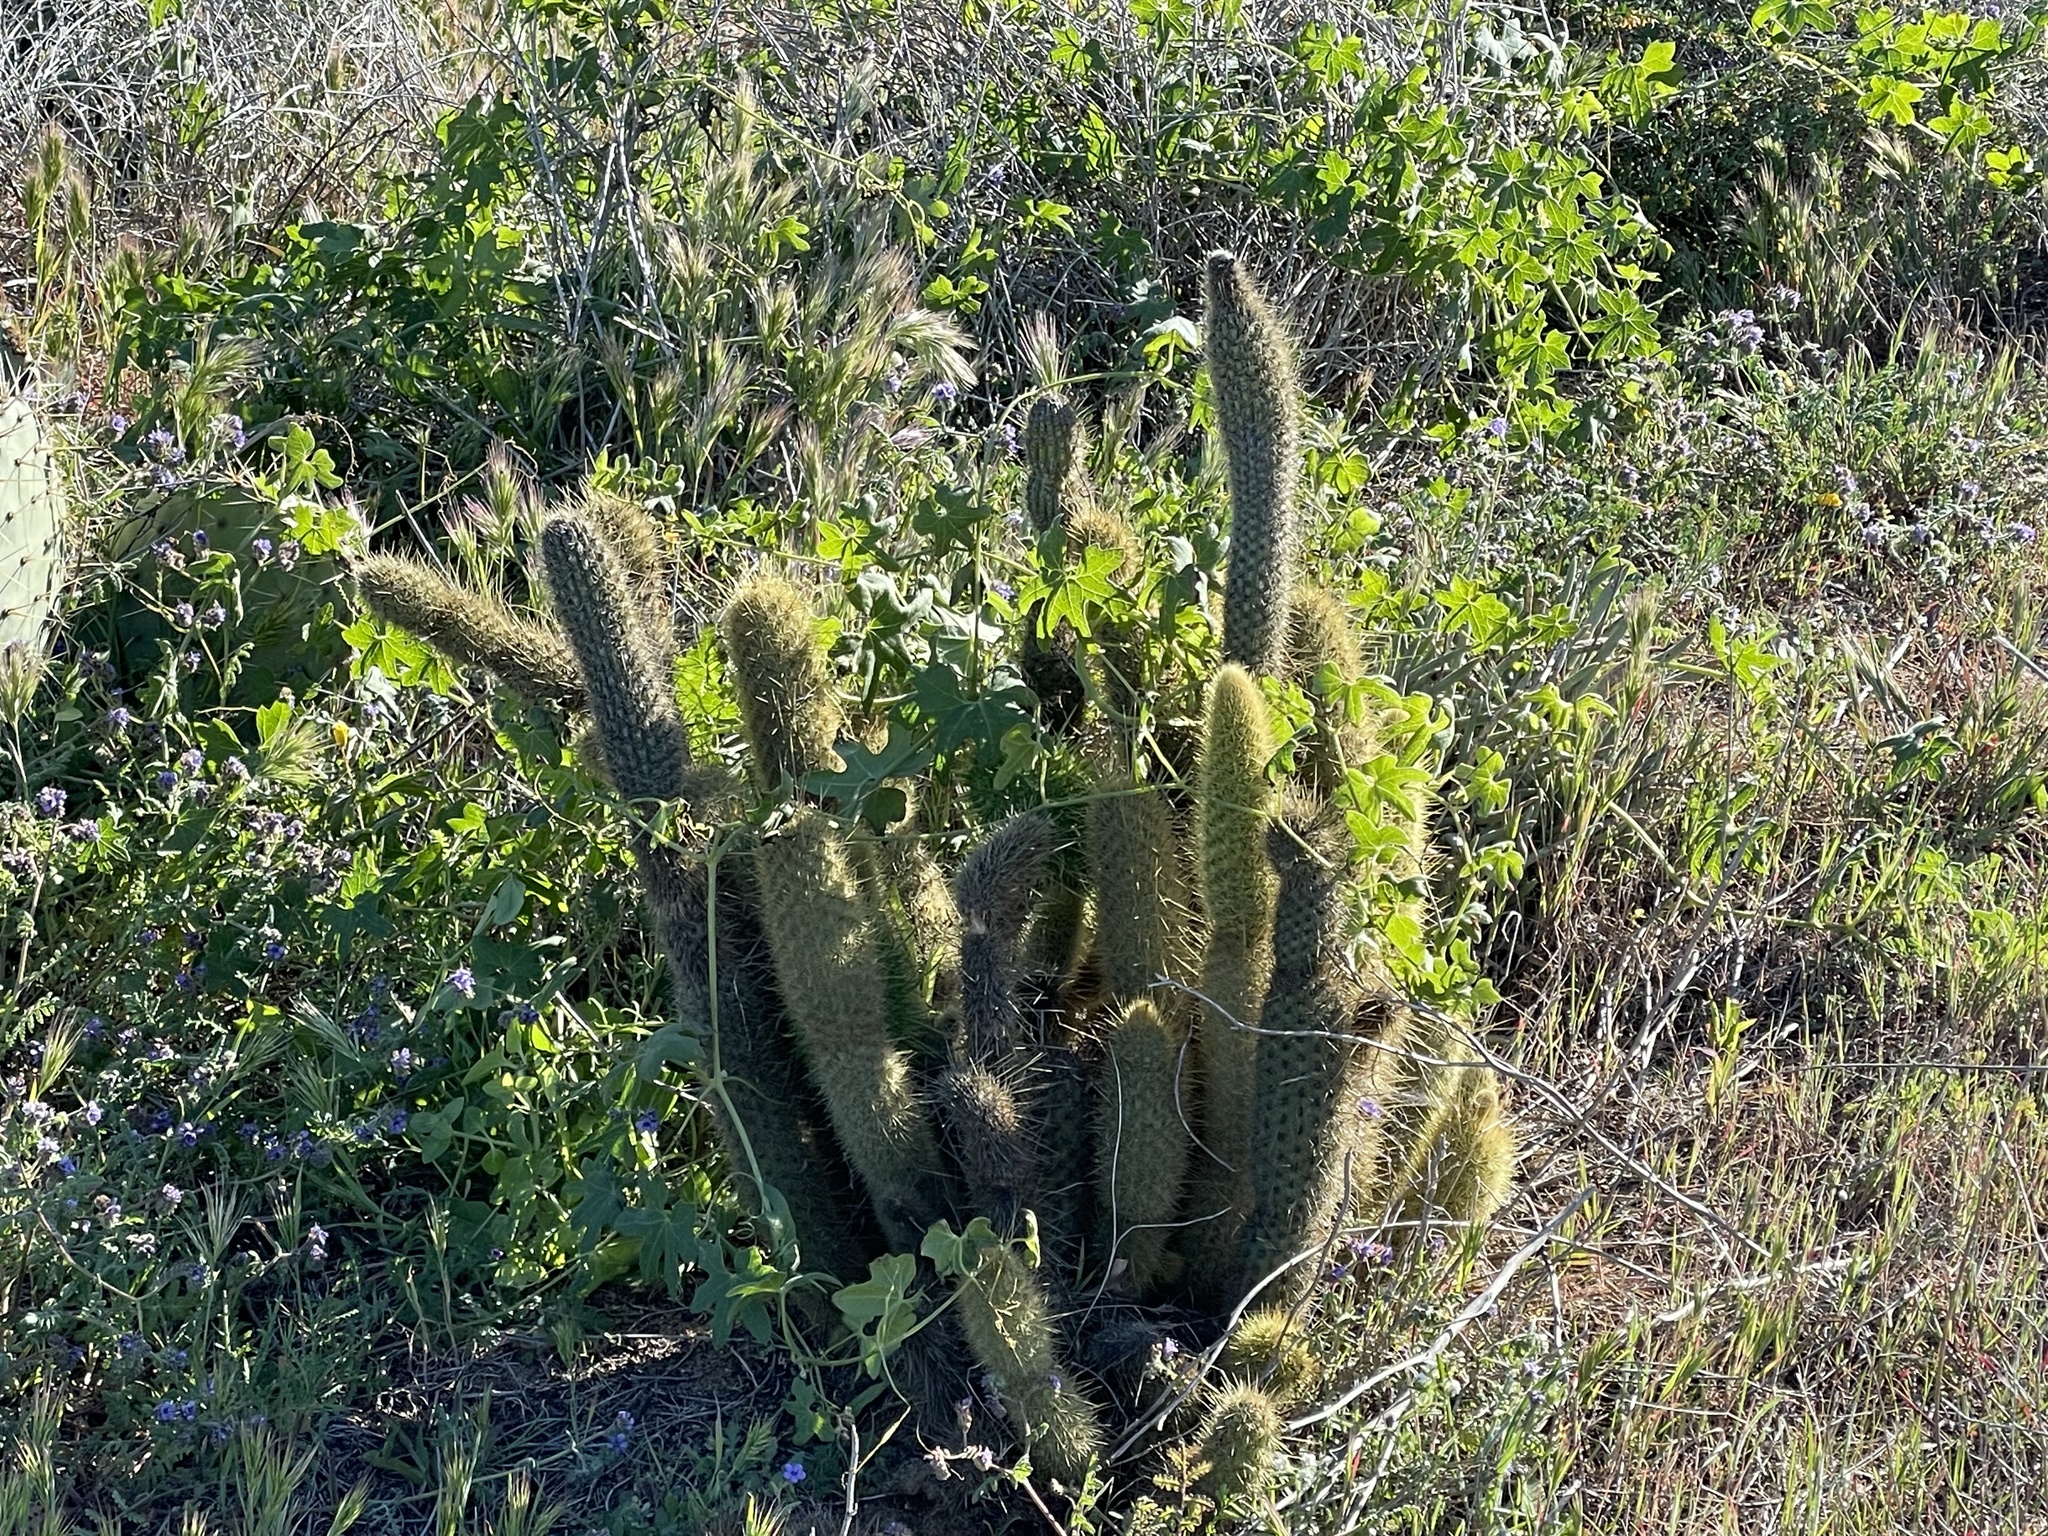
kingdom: Plantae
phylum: Tracheophyta
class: Magnoliopsida
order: Caryophyllales
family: Cactaceae
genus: Bergerocactus
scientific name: Bergerocactus emoryi
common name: Golden snakecactus
